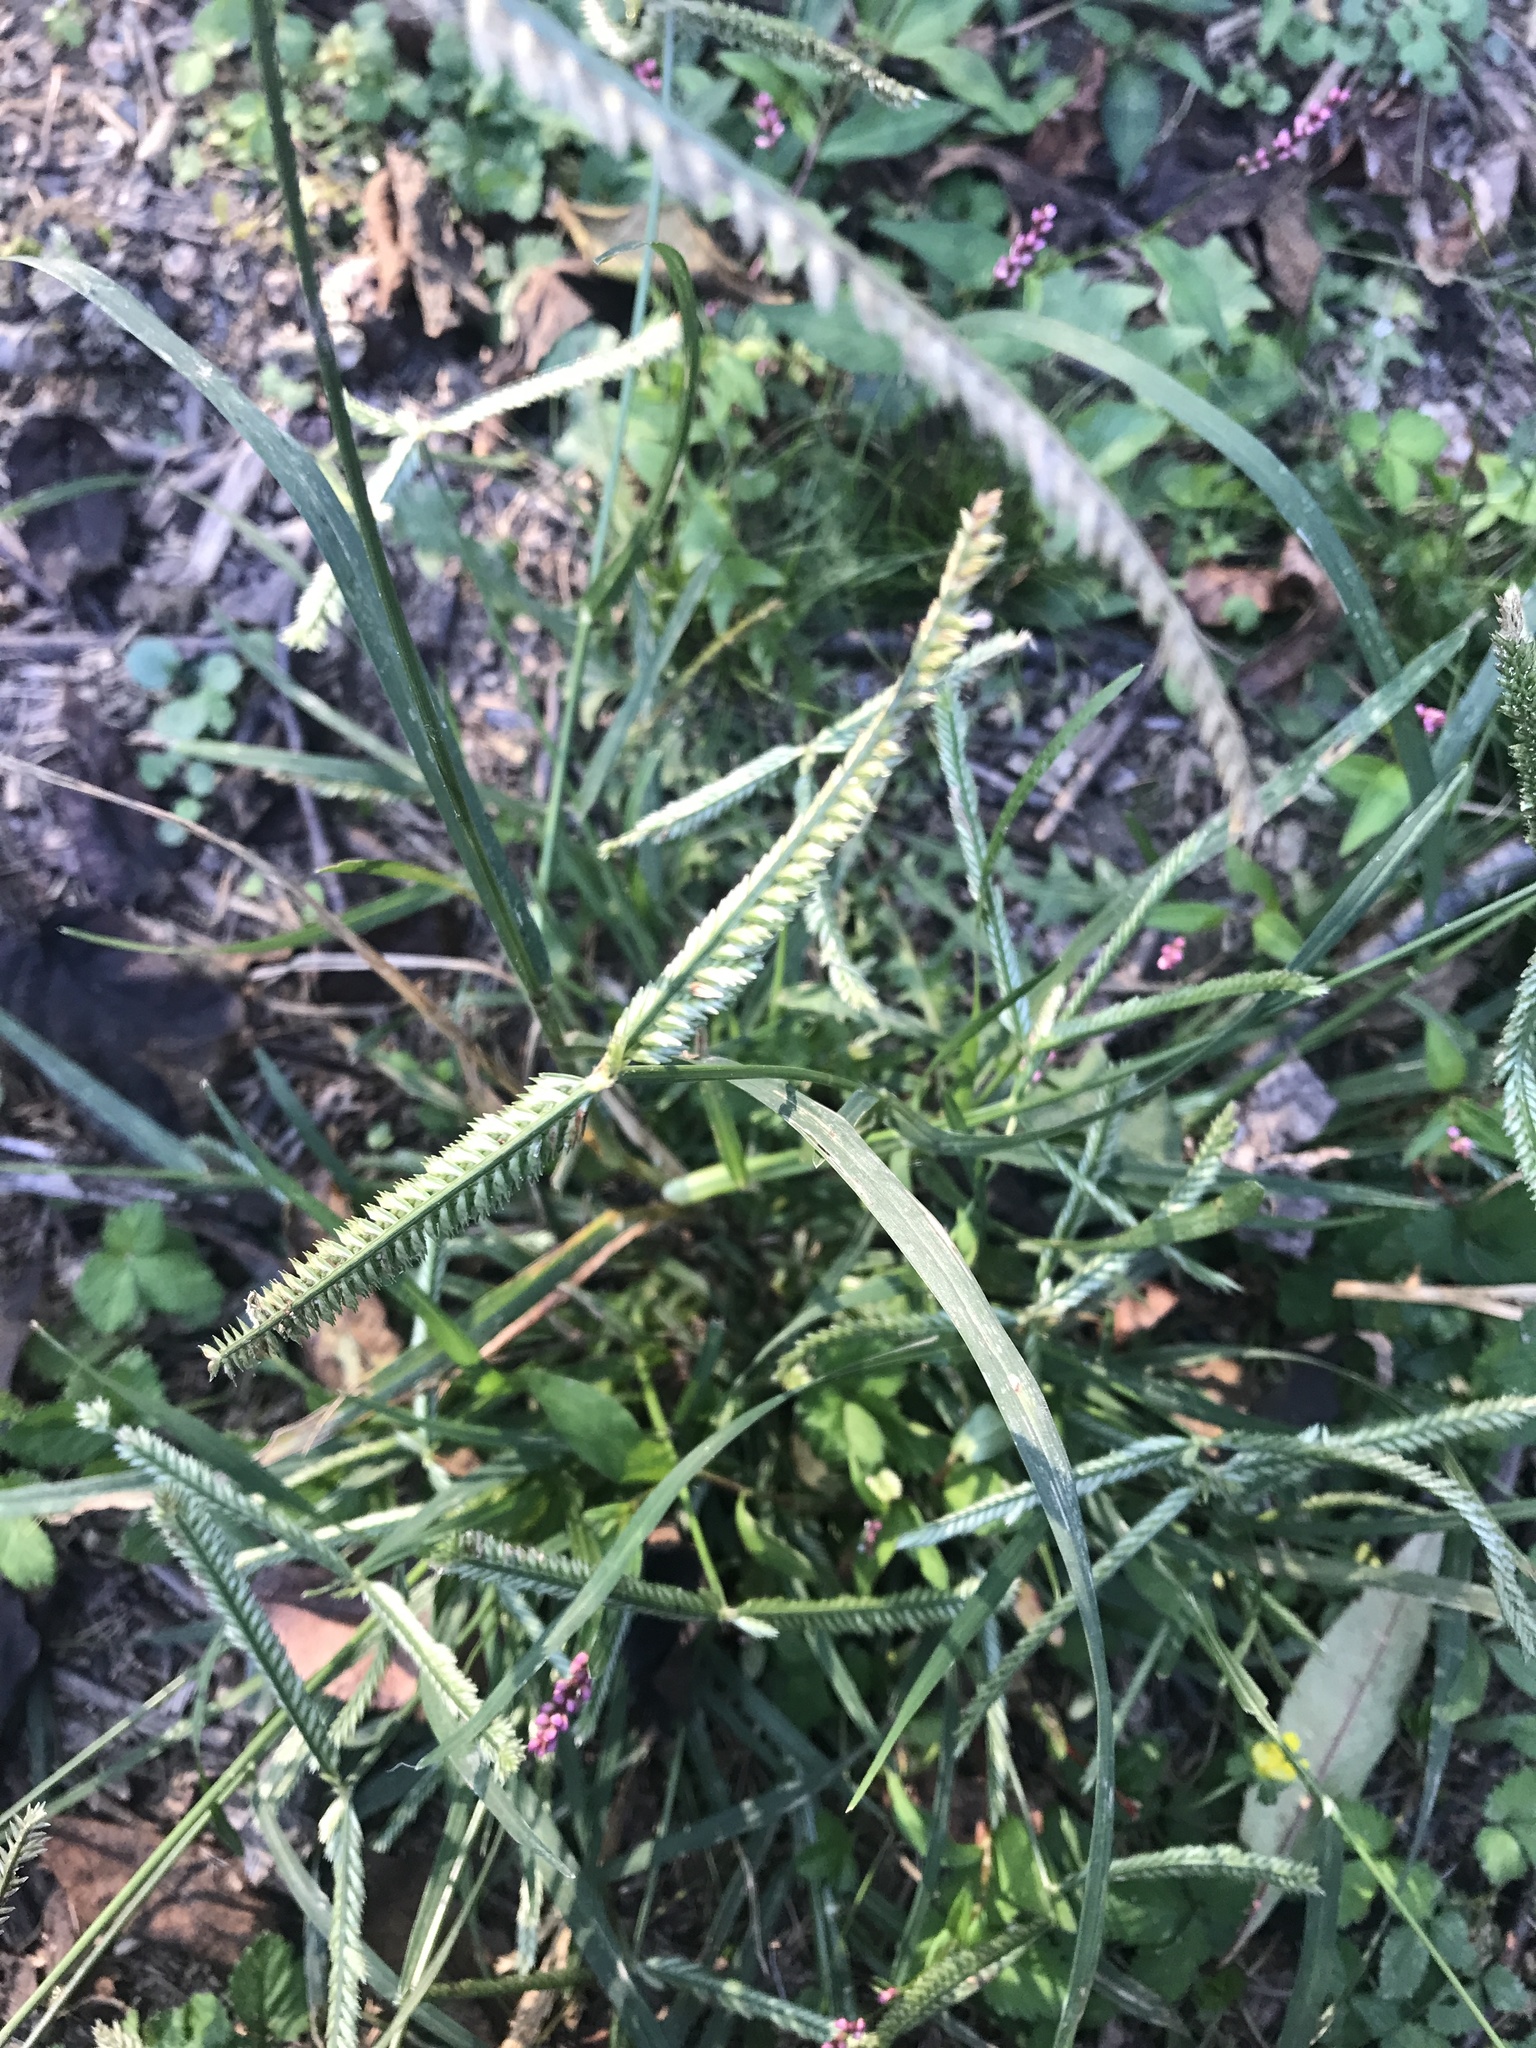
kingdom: Plantae
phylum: Tracheophyta
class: Liliopsida
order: Poales
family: Poaceae
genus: Eleusine
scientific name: Eleusine indica
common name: Yard-grass
